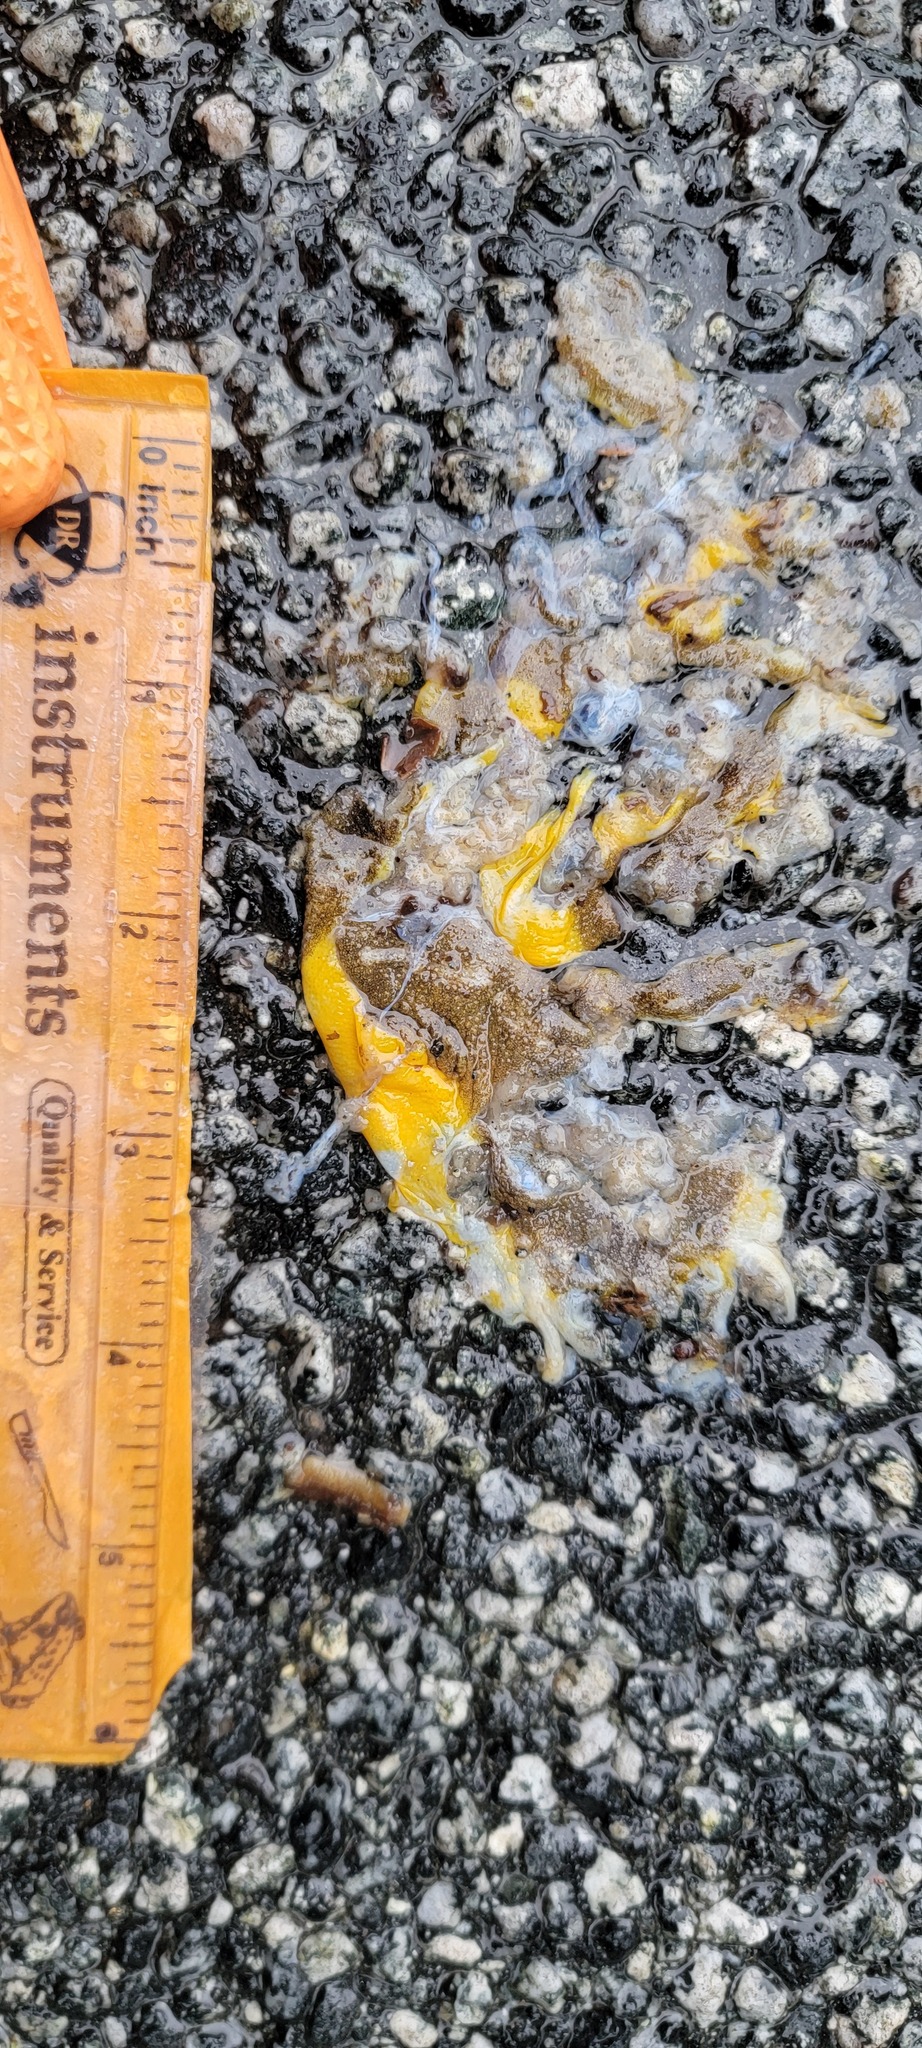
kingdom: Animalia
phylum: Chordata
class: Amphibia
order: Caudata
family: Salamandridae
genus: Taricha
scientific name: Taricha
